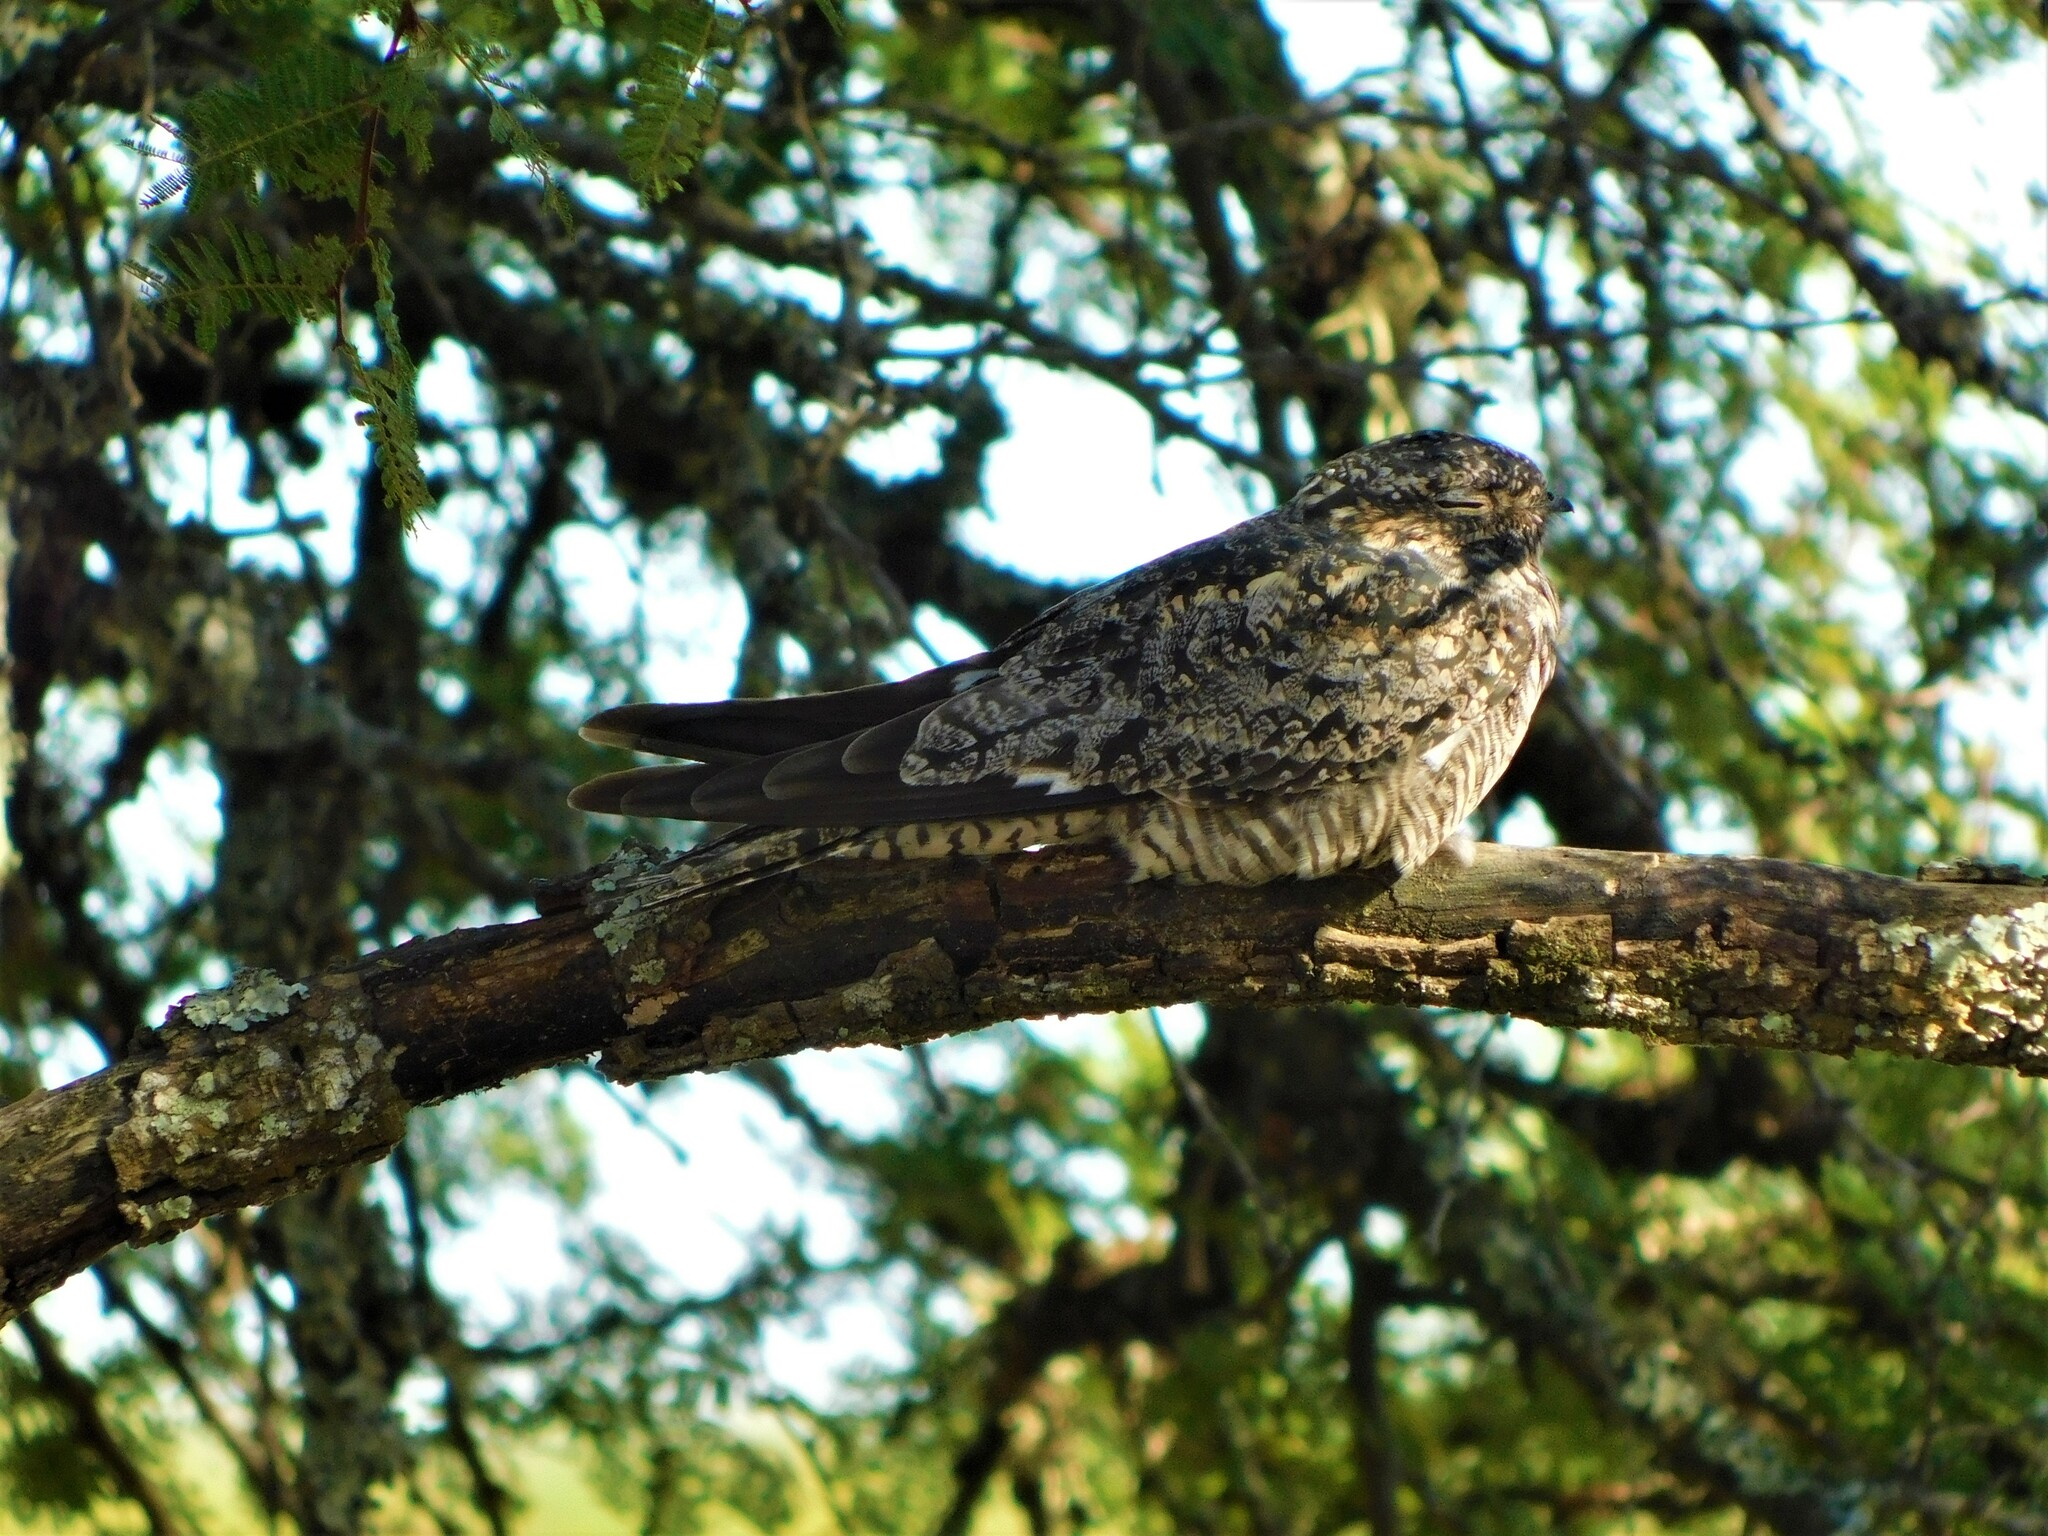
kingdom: Animalia
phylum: Chordata
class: Aves
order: Caprimulgiformes
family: Caprimulgidae
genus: Chordeiles
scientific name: Chordeiles minor
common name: Common nighthawk
